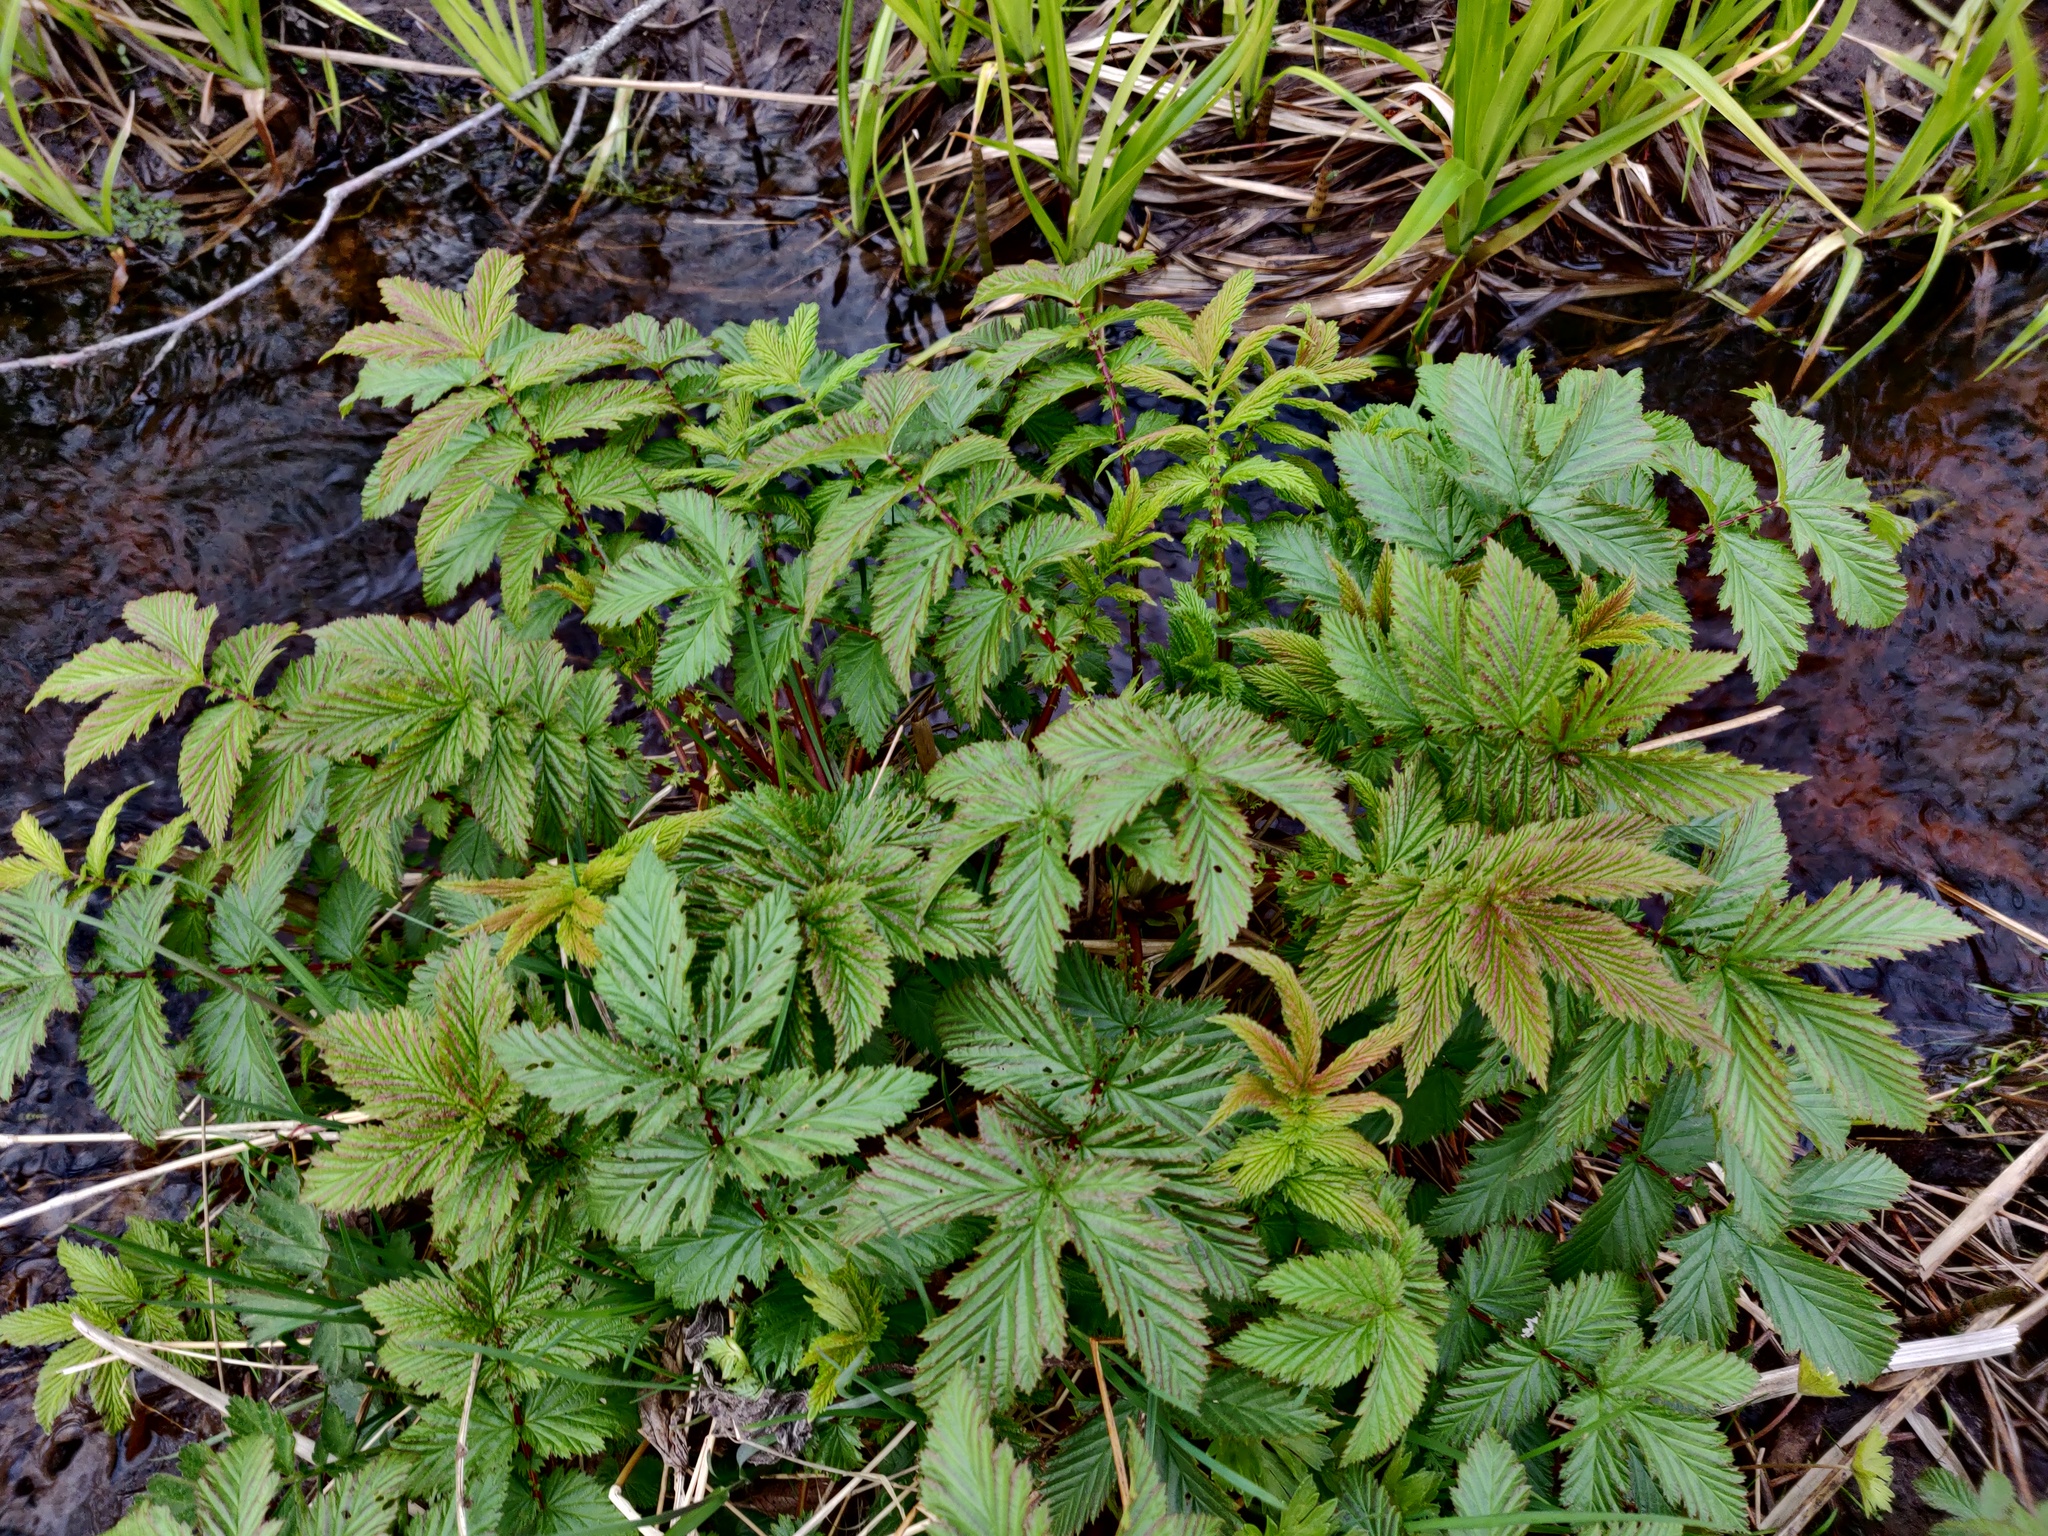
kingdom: Plantae
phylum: Tracheophyta
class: Magnoliopsida
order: Rosales
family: Rosaceae
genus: Filipendula
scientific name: Filipendula ulmaria
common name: Meadowsweet
